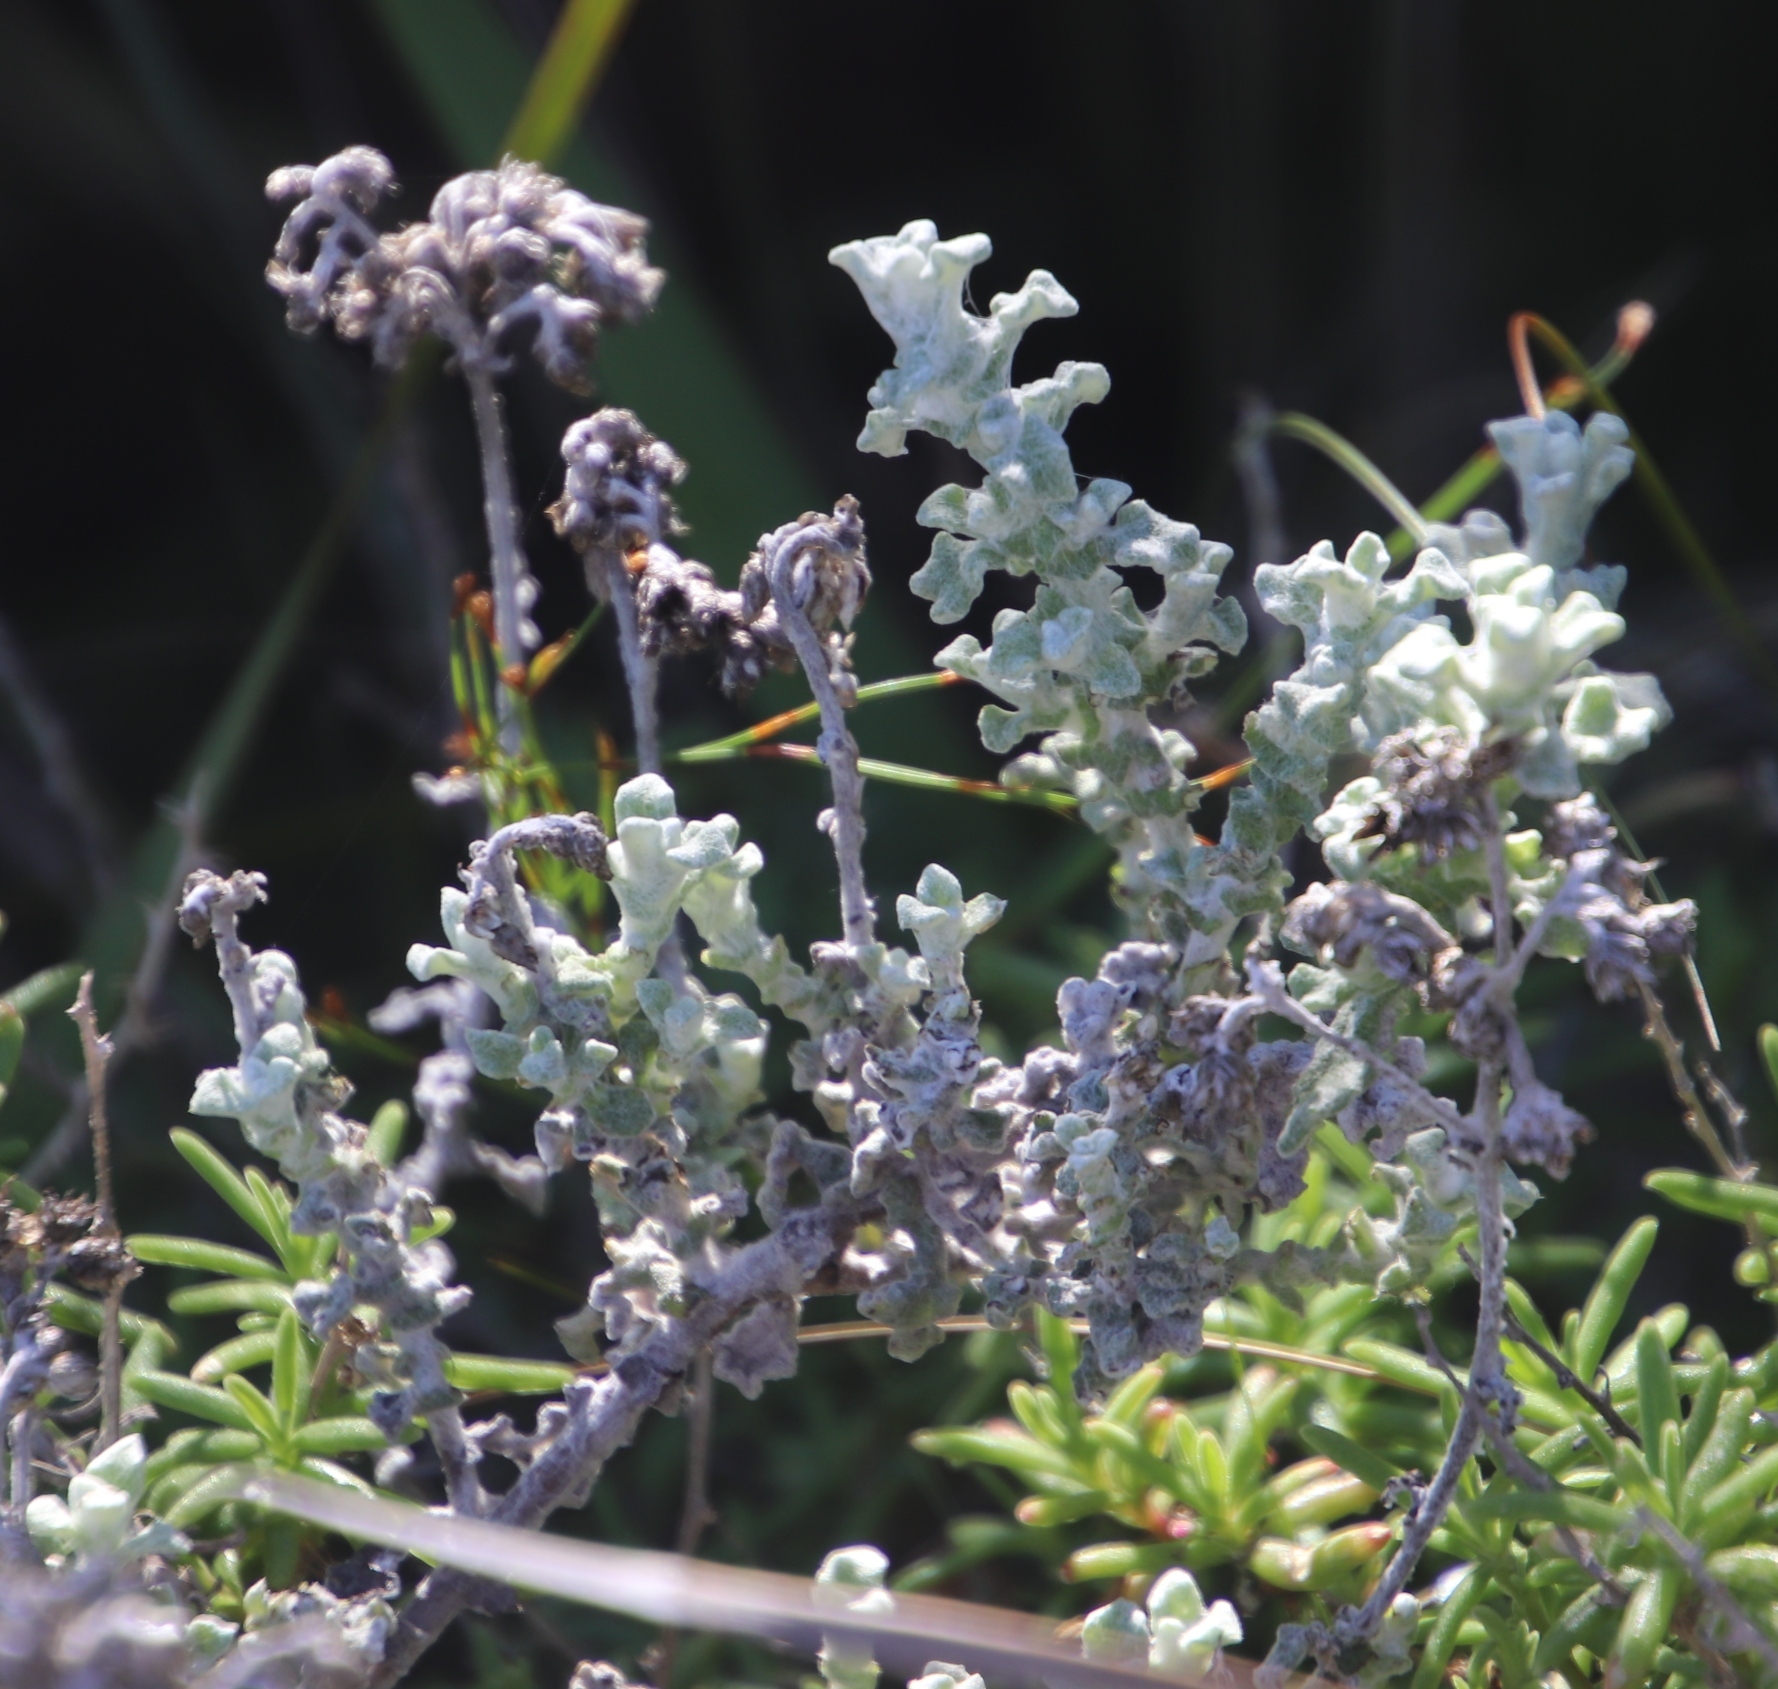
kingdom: Plantae
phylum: Tracheophyta
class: Magnoliopsida
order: Asterales
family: Asteraceae
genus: Helichrysum
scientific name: Helichrysum patulum
